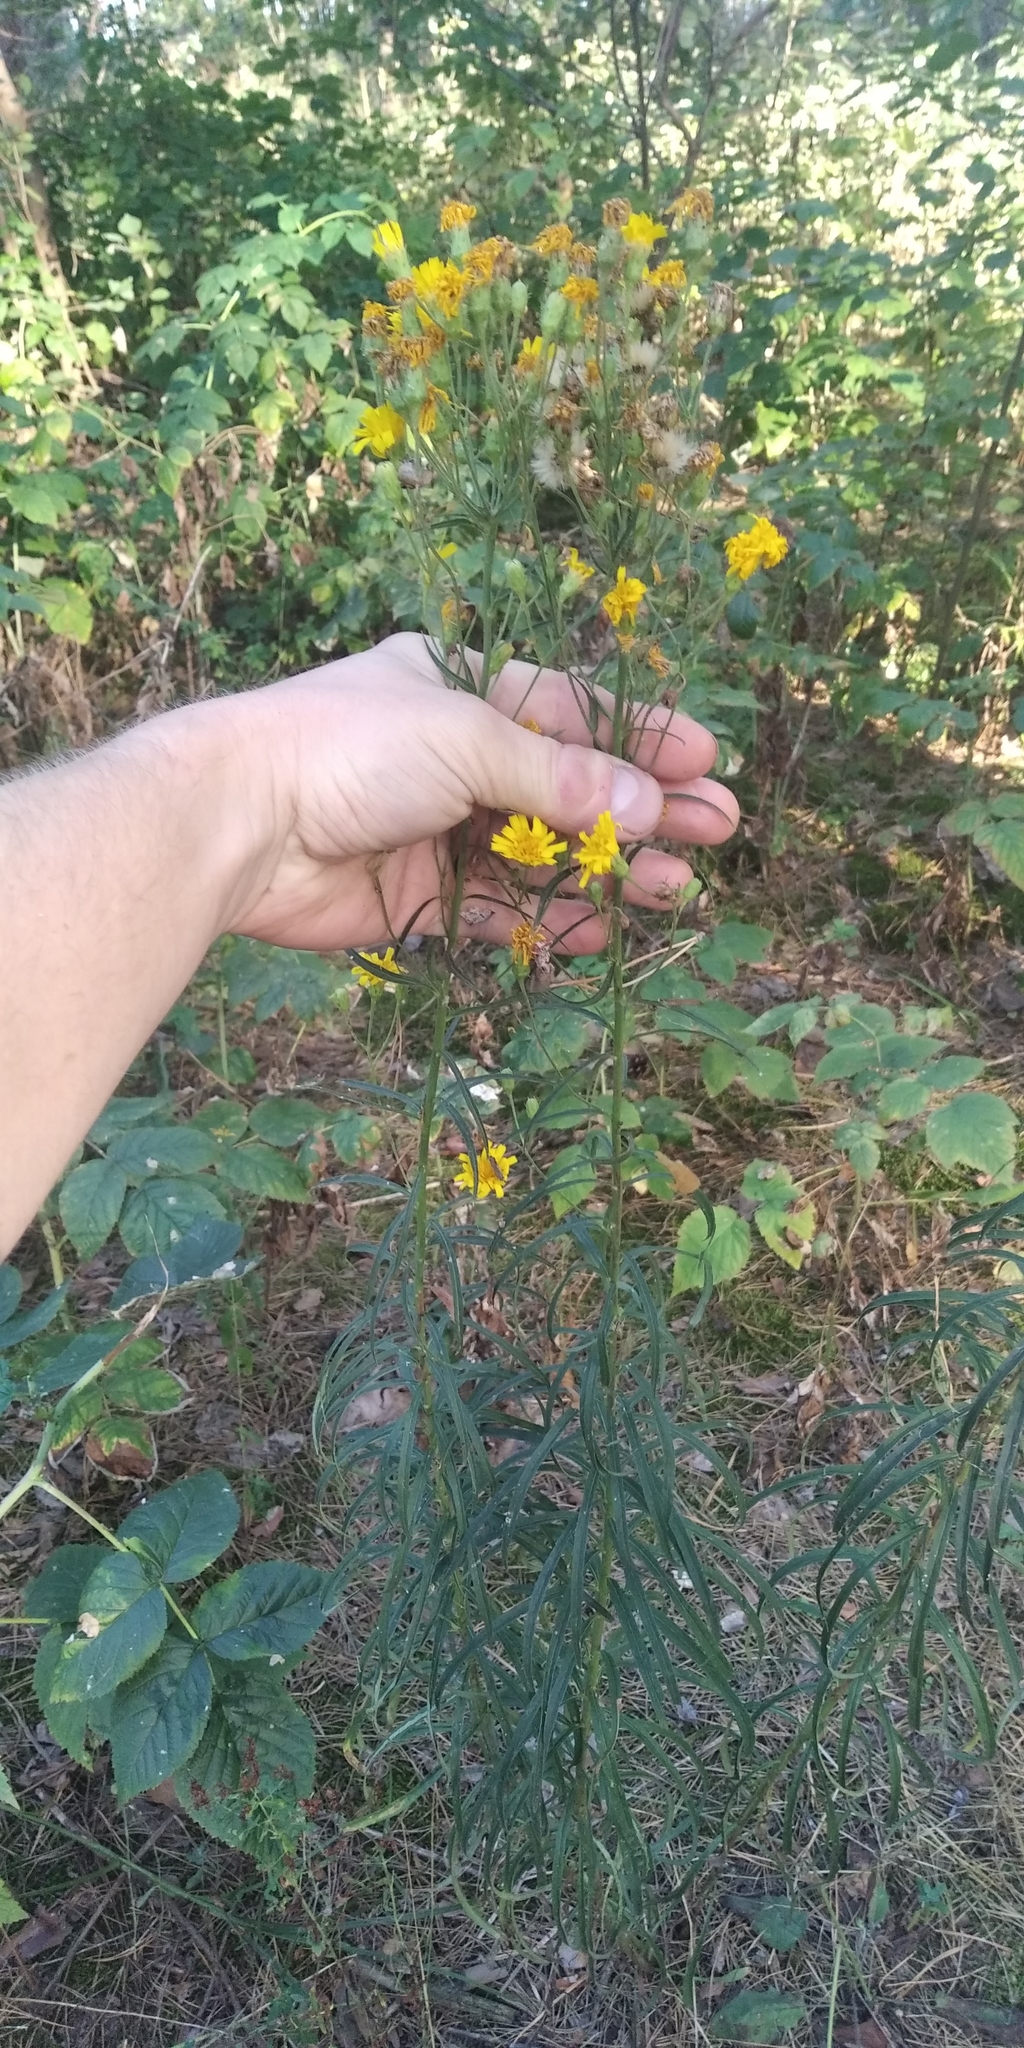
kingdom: Plantae
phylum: Tracheophyta
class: Magnoliopsida
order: Asterales
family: Asteraceae
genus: Hieracium
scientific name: Hieracium umbellatum
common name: Northern hawkweed
